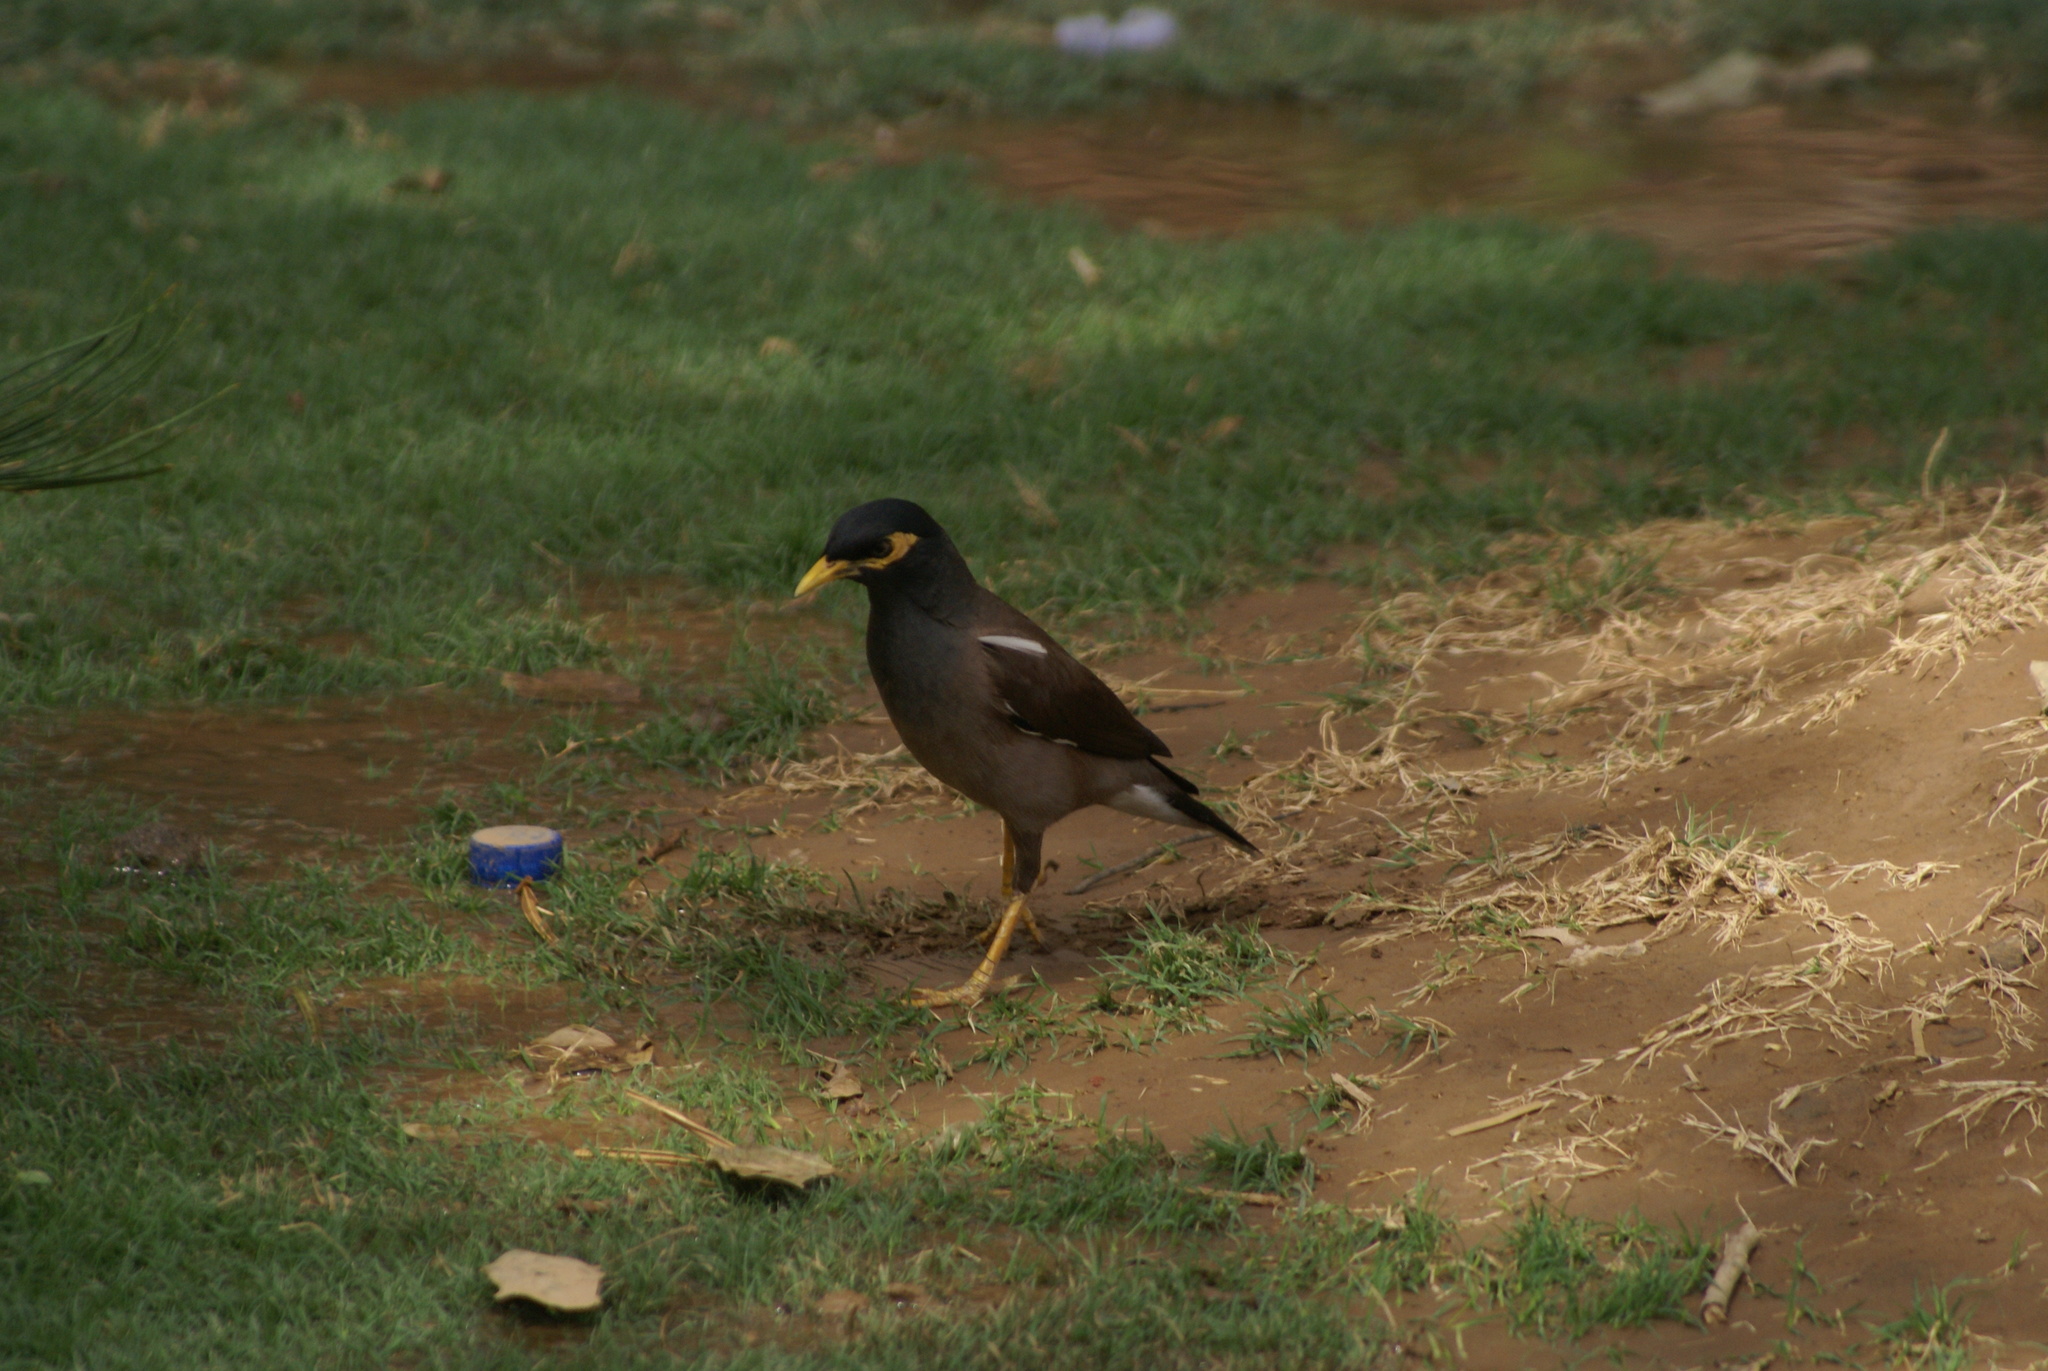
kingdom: Animalia
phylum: Chordata
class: Aves
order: Passeriformes
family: Sturnidae
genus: Acridotheres
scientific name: Acridotheres tristis
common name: Common myna
